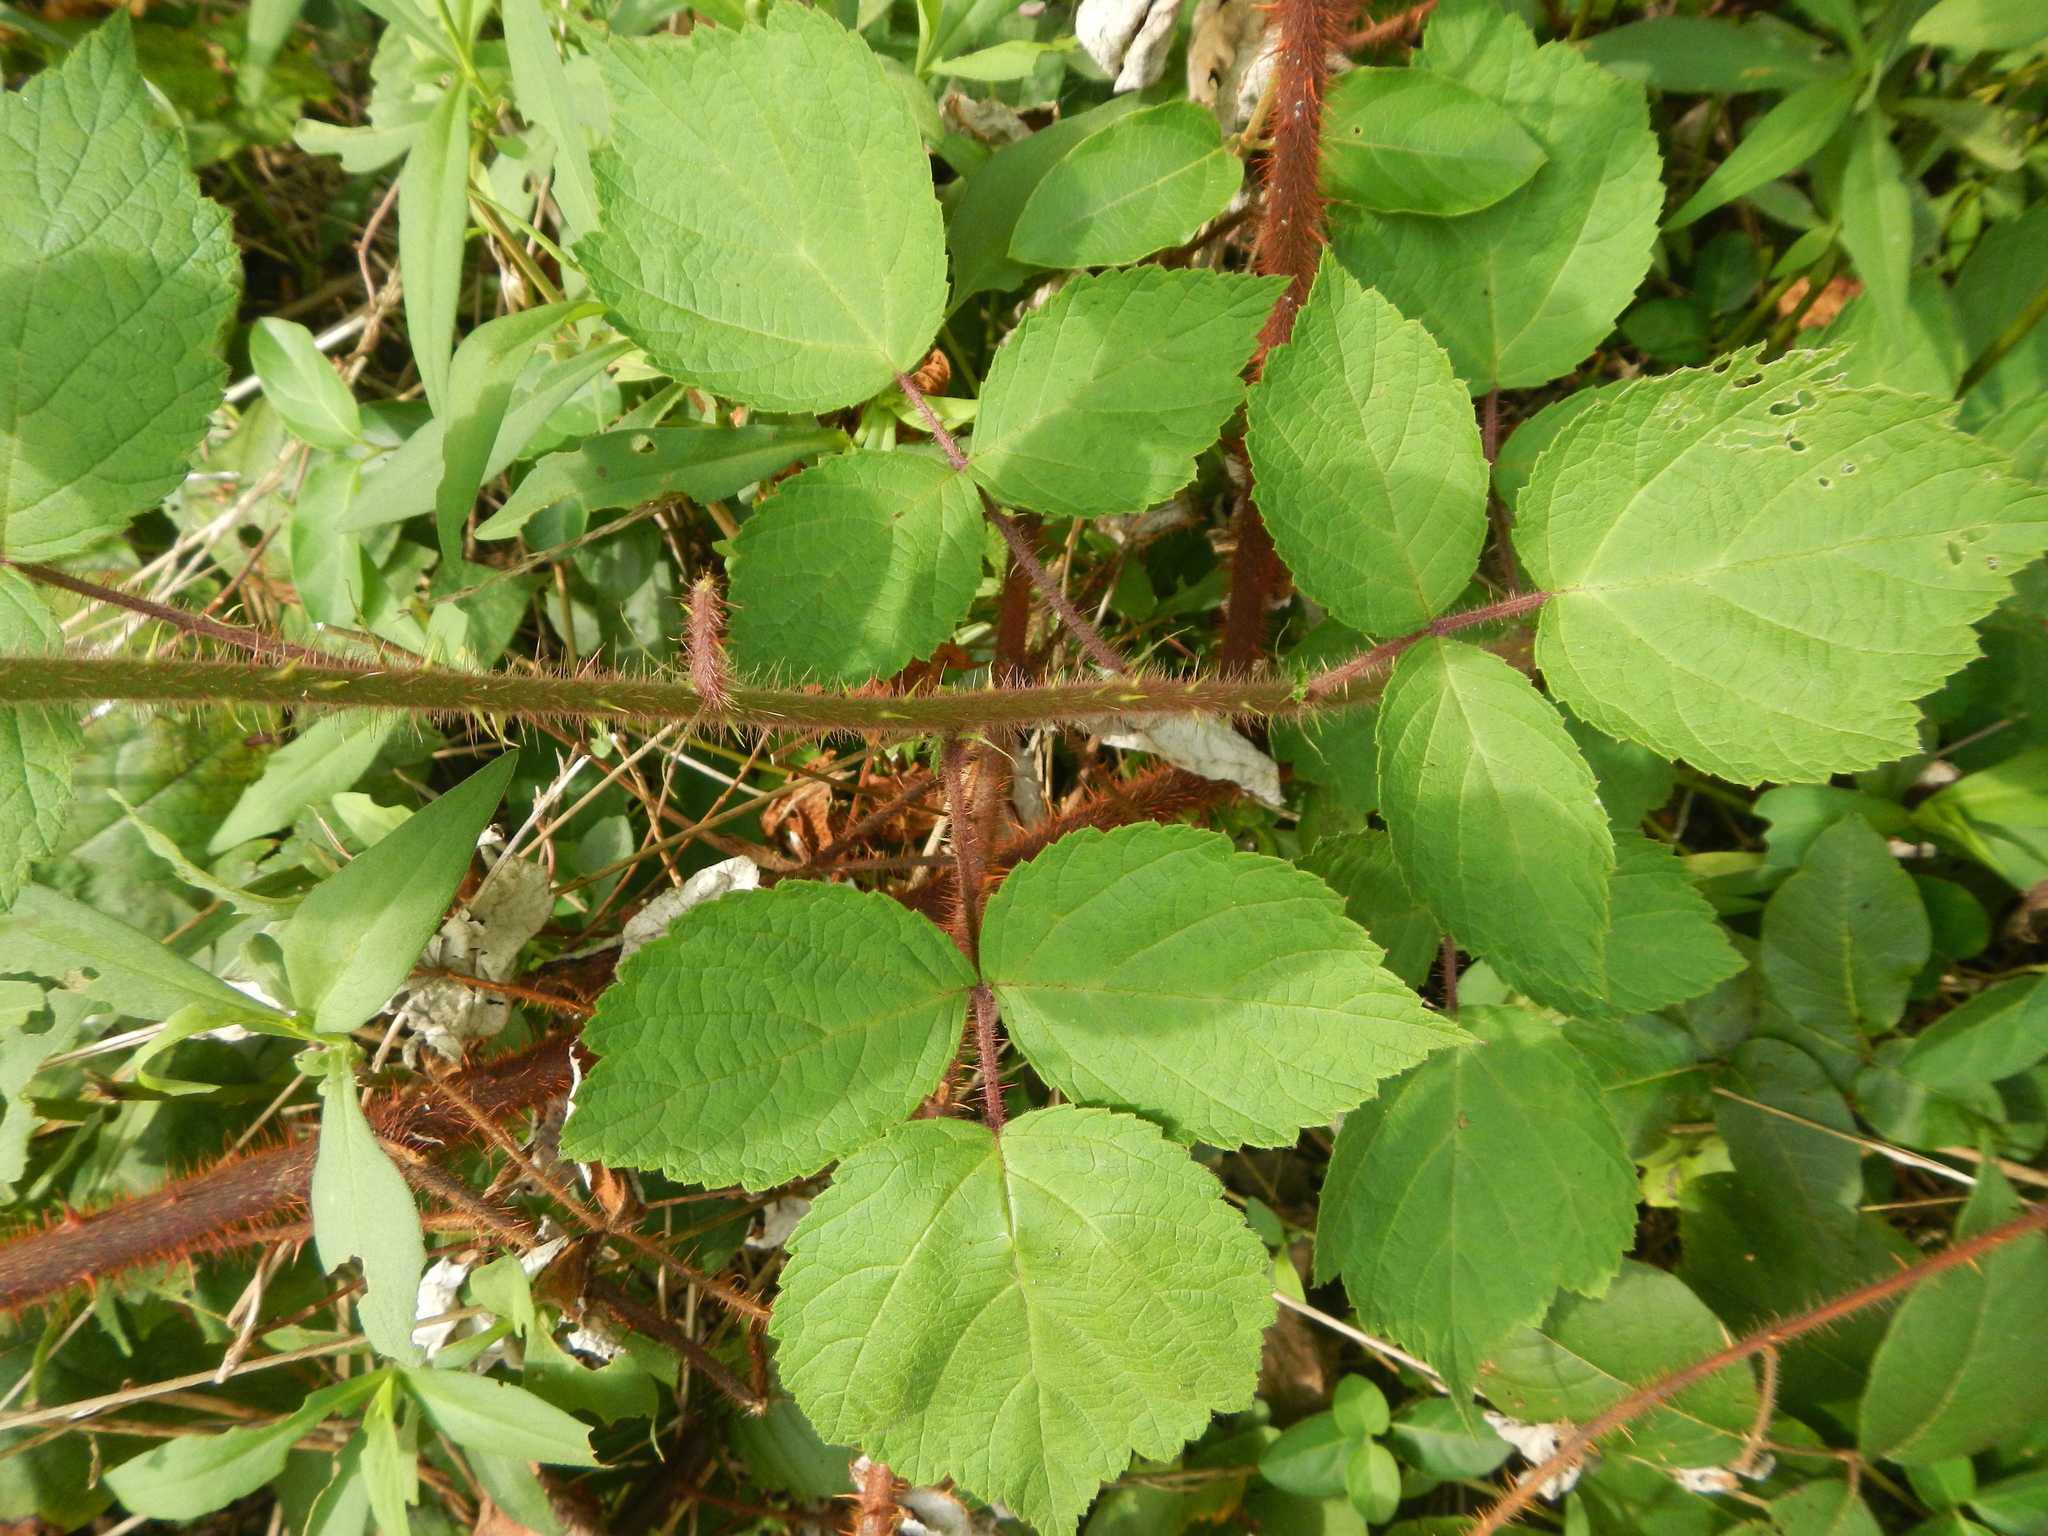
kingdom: Plantae
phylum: Tracheophyta
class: Magnoliopsida
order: Rosales
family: Rosaceae
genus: Rubus
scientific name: Rubus phoenicolasius
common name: Japanese wineberry
